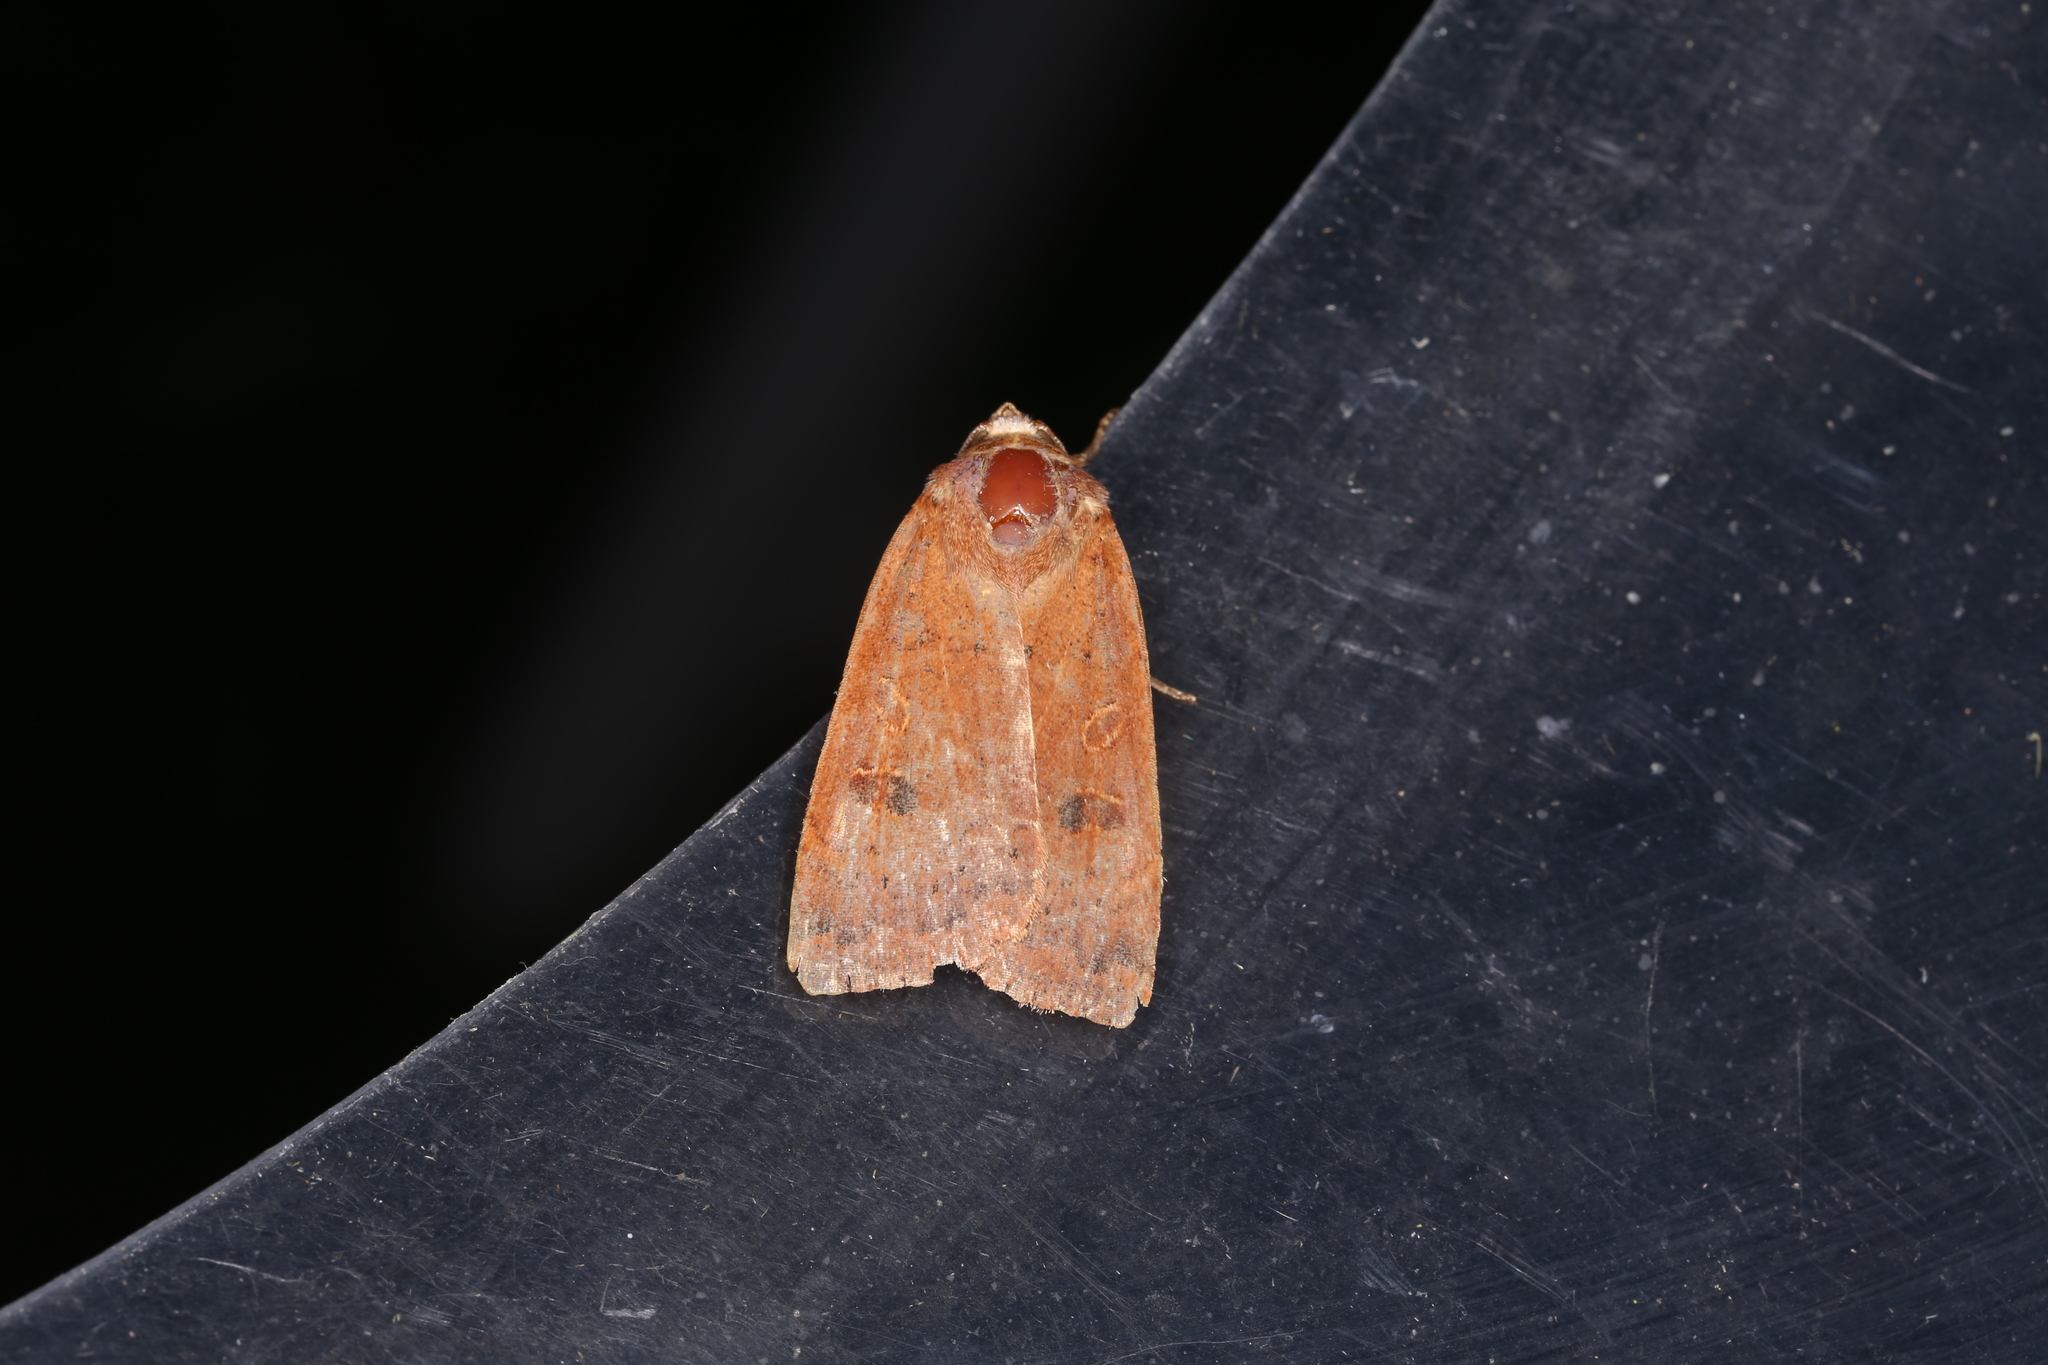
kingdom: Animalia
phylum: Arthropoda
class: Insecta
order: Lepidoptera
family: Noctuidae
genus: Noctua
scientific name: Noctua comes
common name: Lesser yellow underwing
